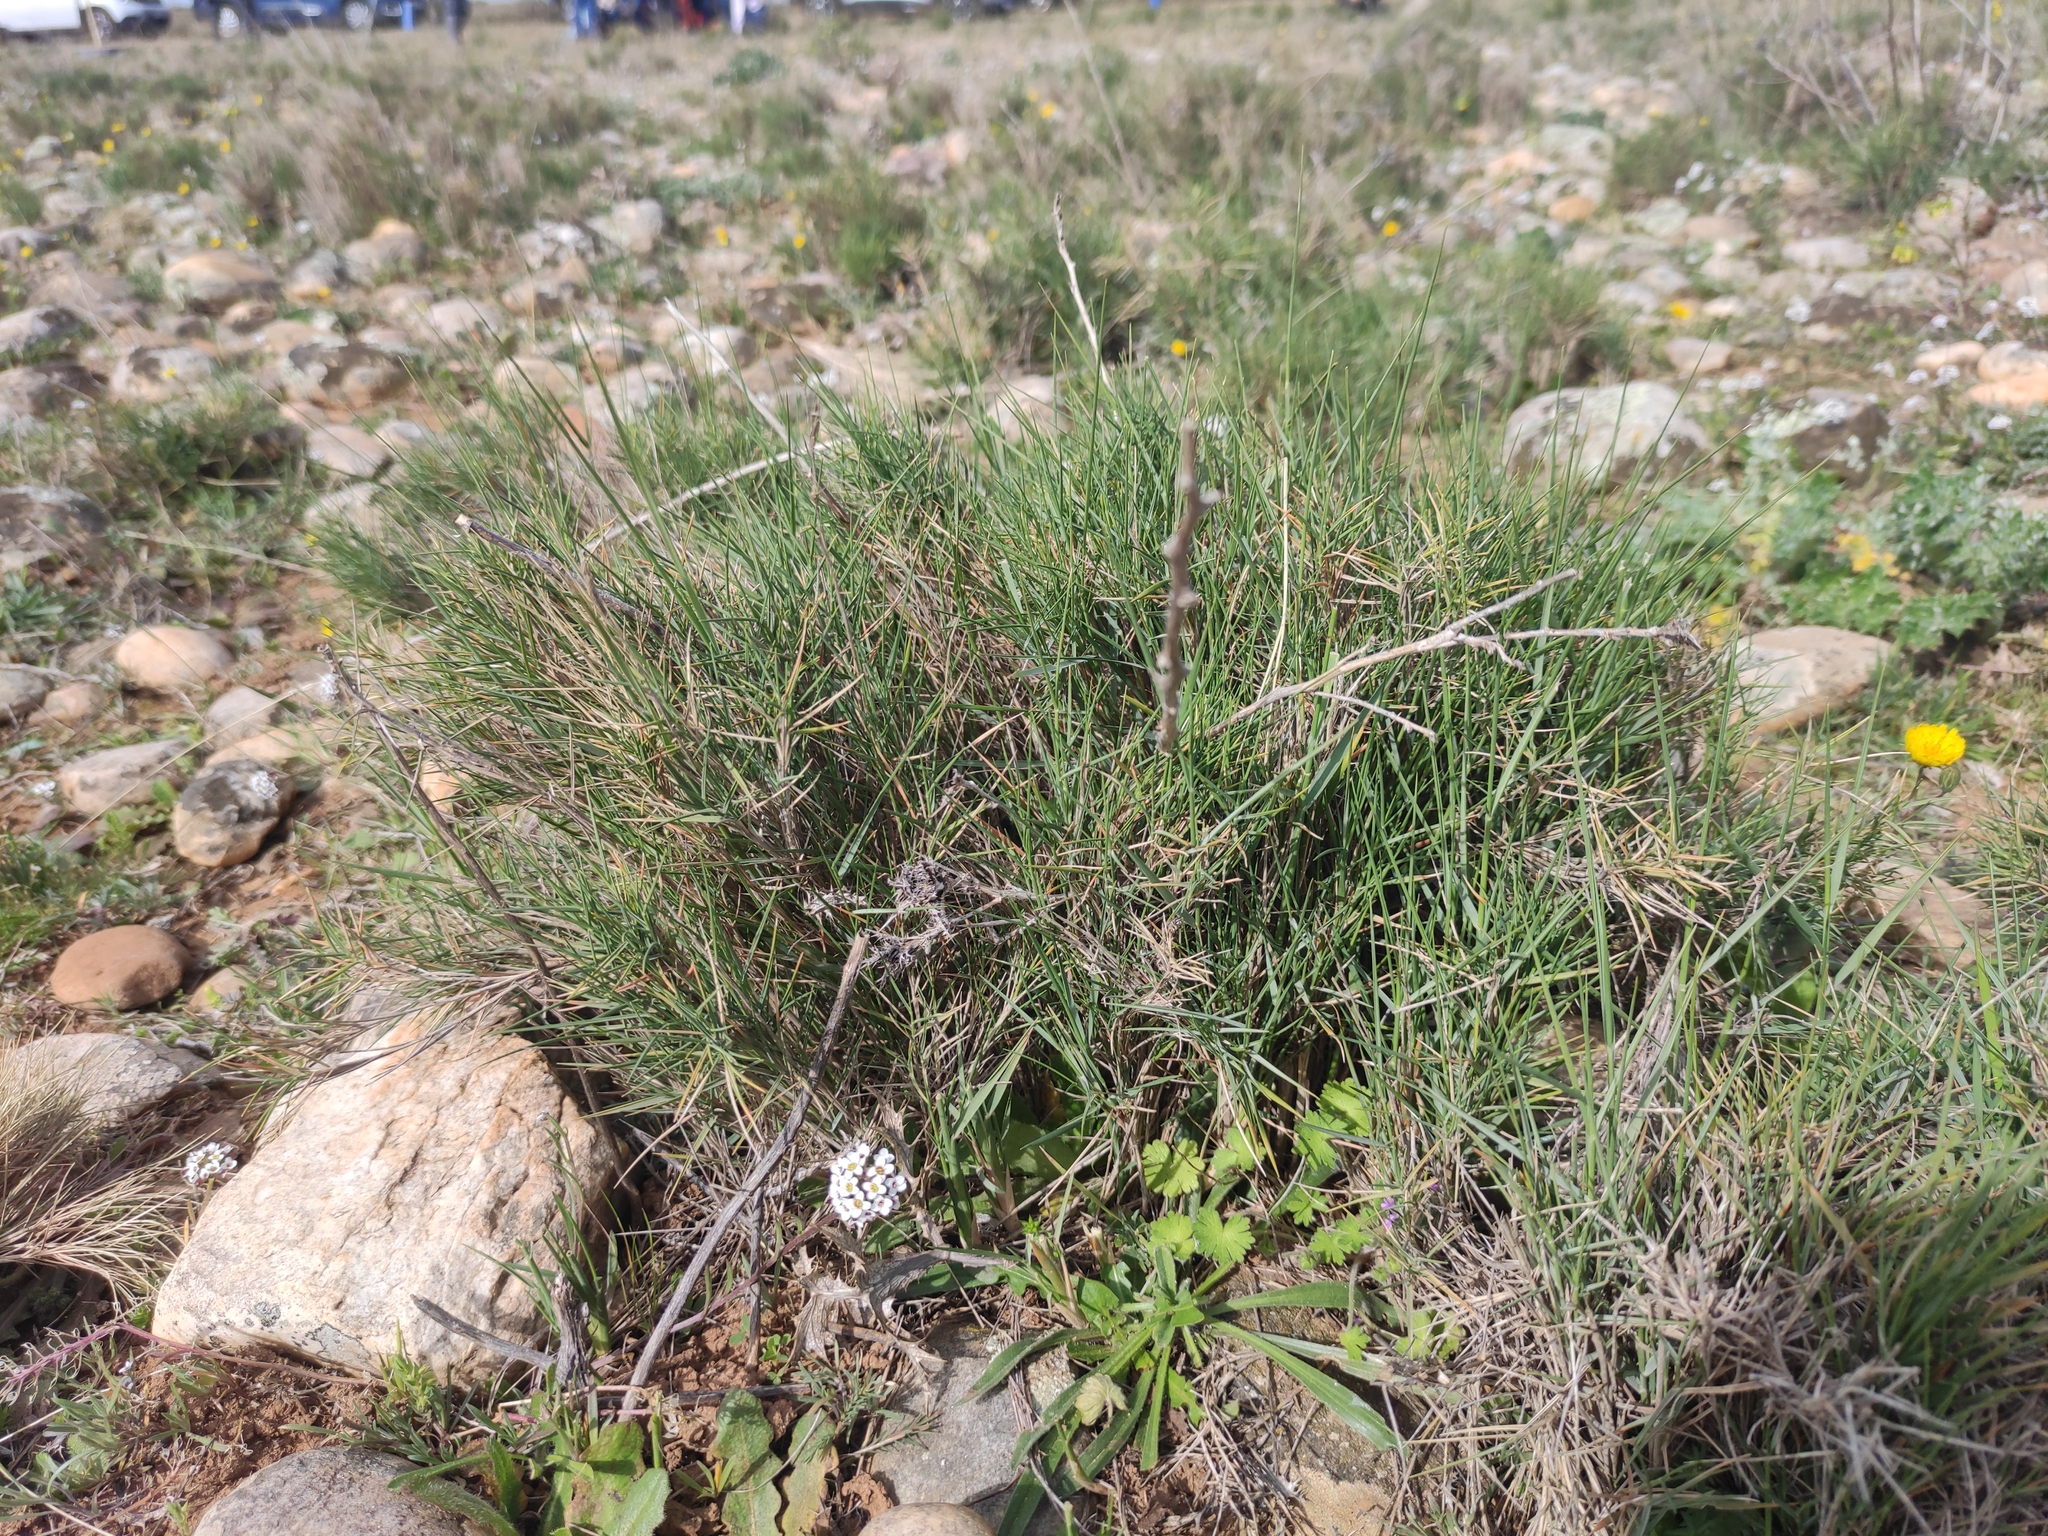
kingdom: Plantae
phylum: Tracheophyta
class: Liliopsida
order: Poales
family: Poaceae
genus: Brachypodium
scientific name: Brachypodium retusum
